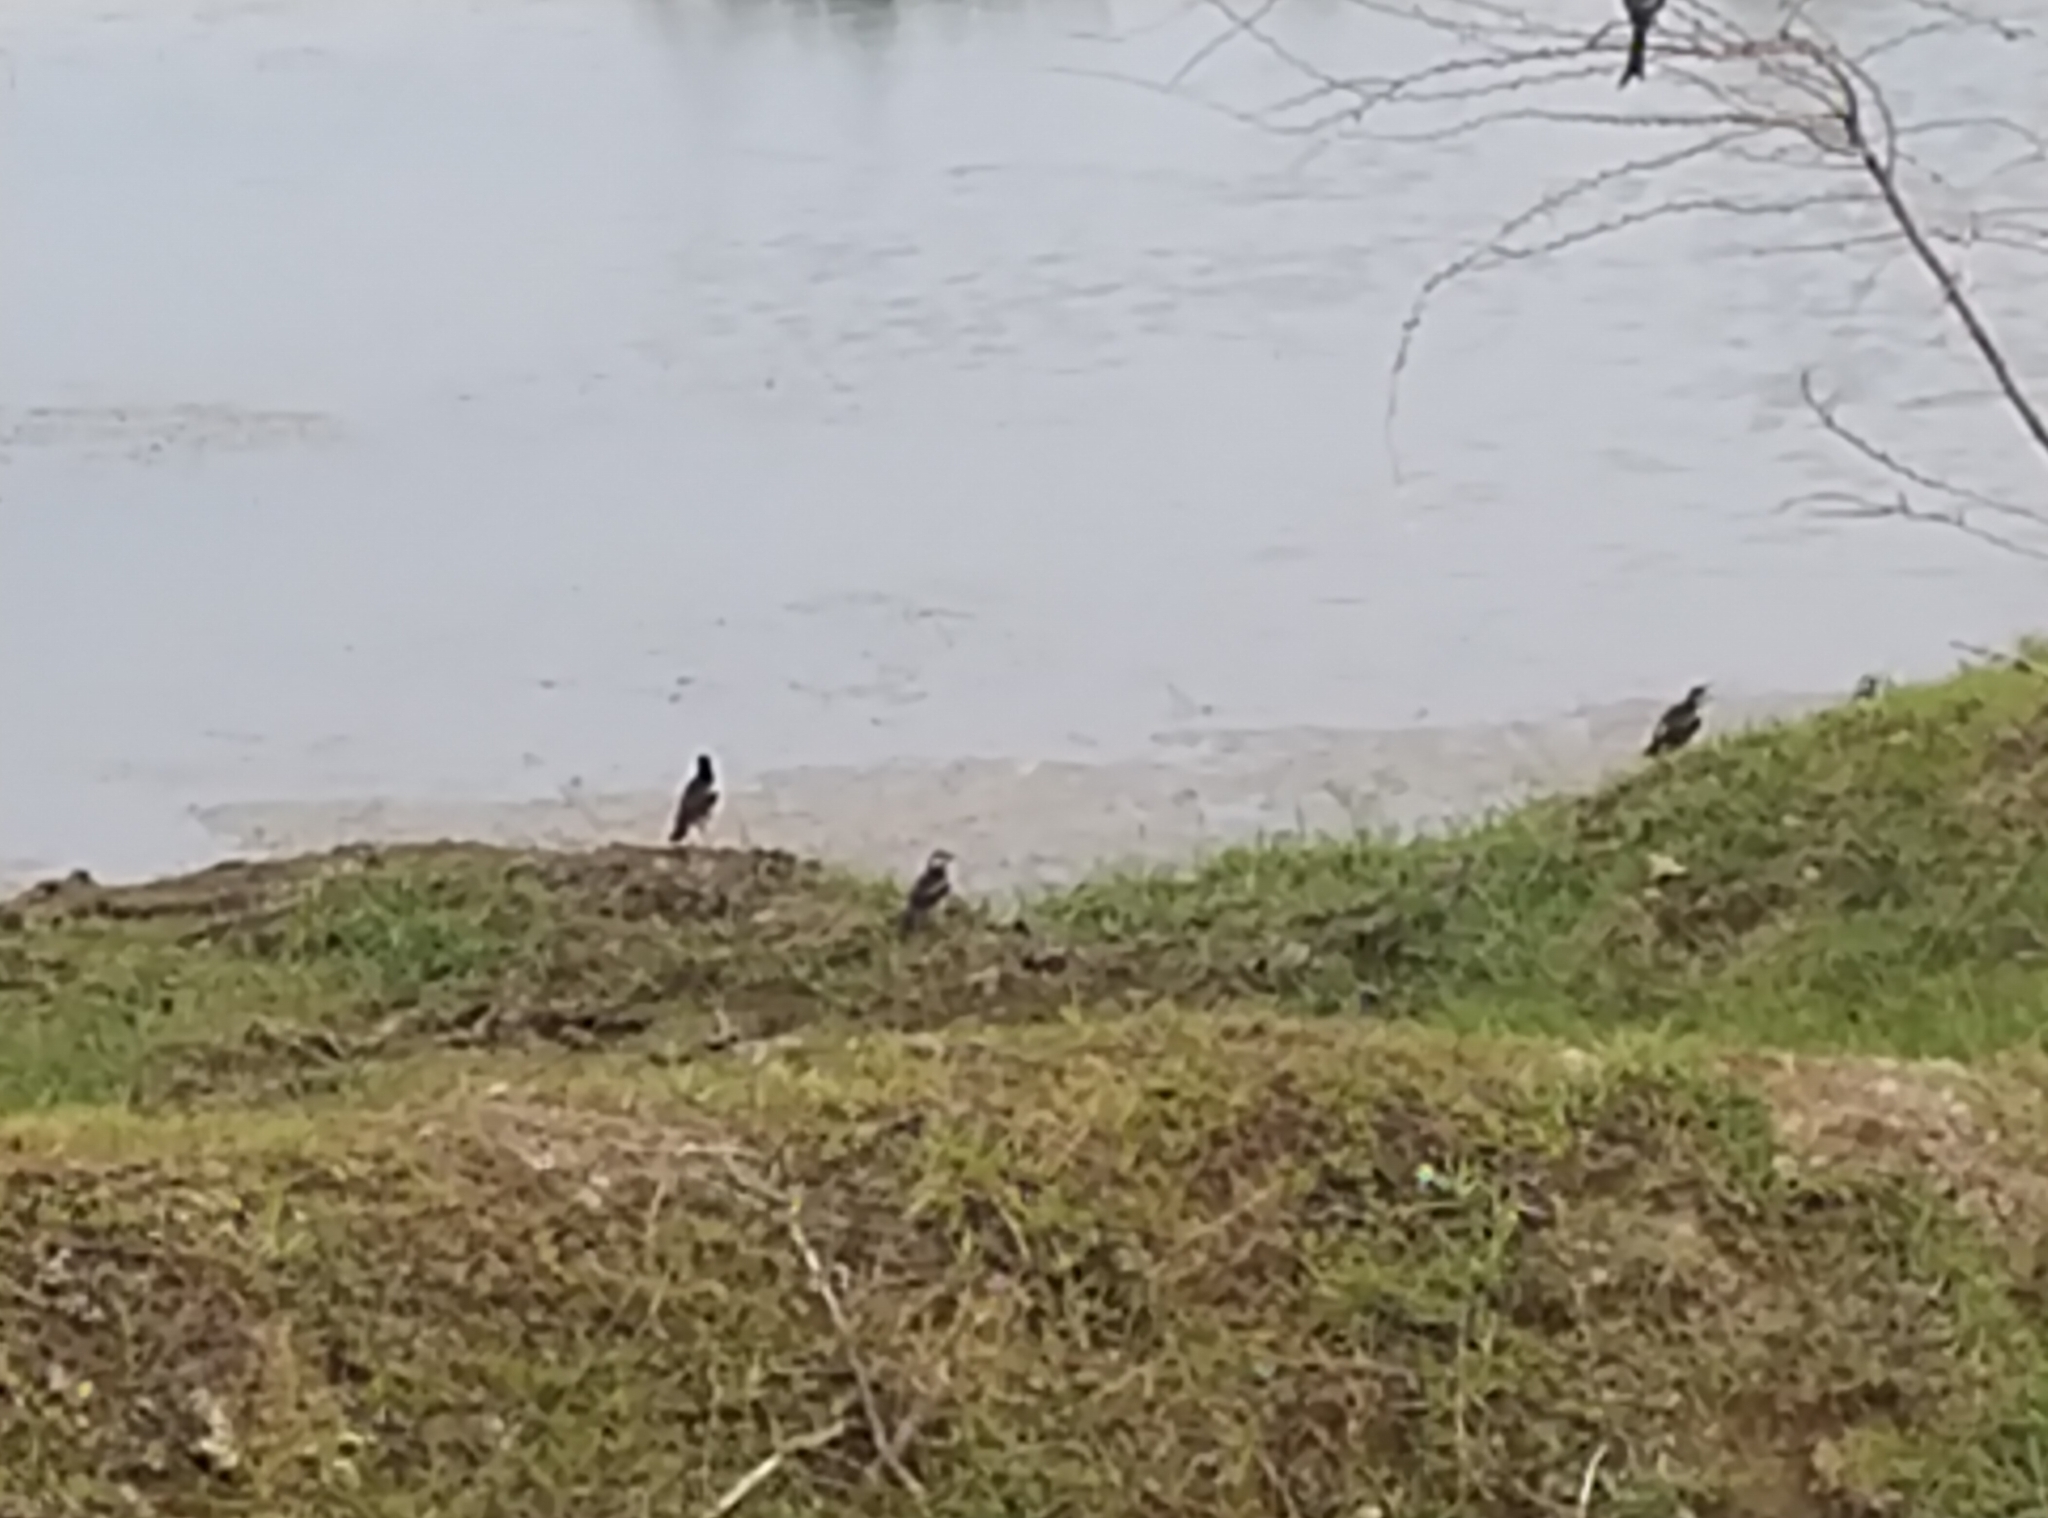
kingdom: Animalia
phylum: Chordata
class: Aves
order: Passeriformes
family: Sturnidae
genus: Gracupica
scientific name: Gracupica contra
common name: Pied myna
